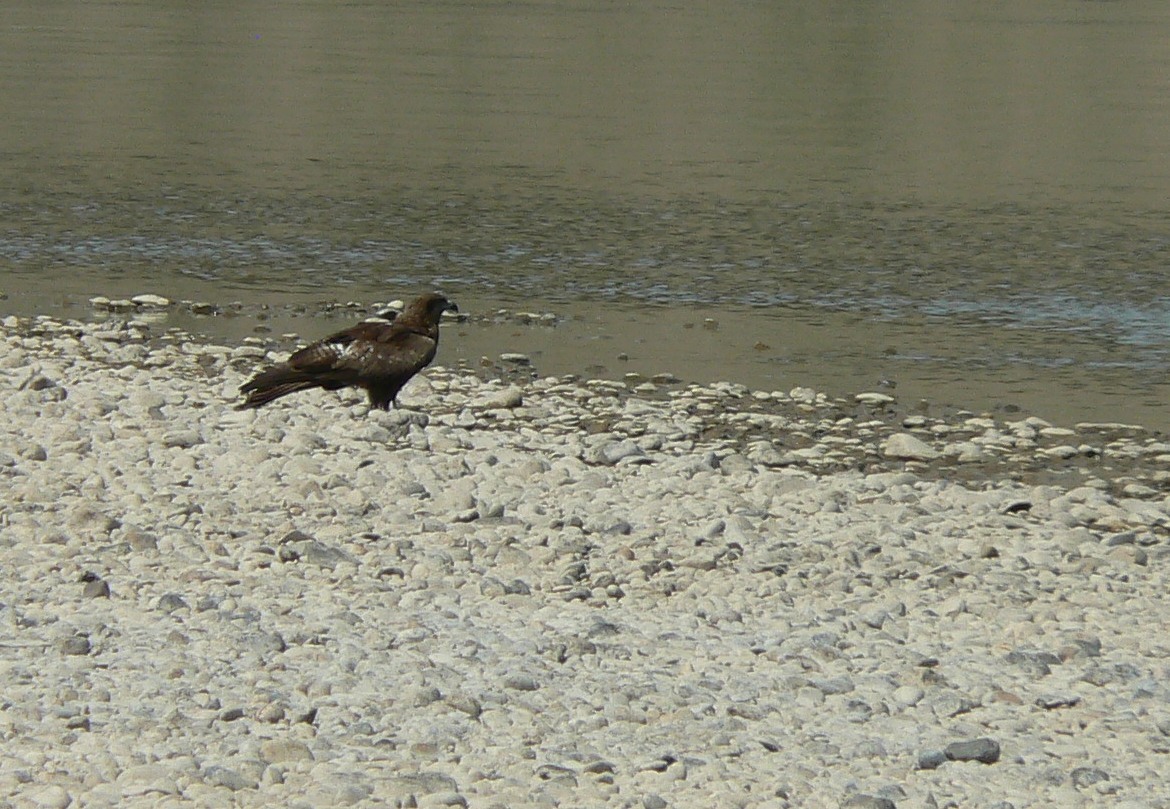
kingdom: Animalia
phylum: Chordata
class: Aves
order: Accipitriformes
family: Accipitridae
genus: Milvus
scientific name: Milvus migrans
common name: Black kite
